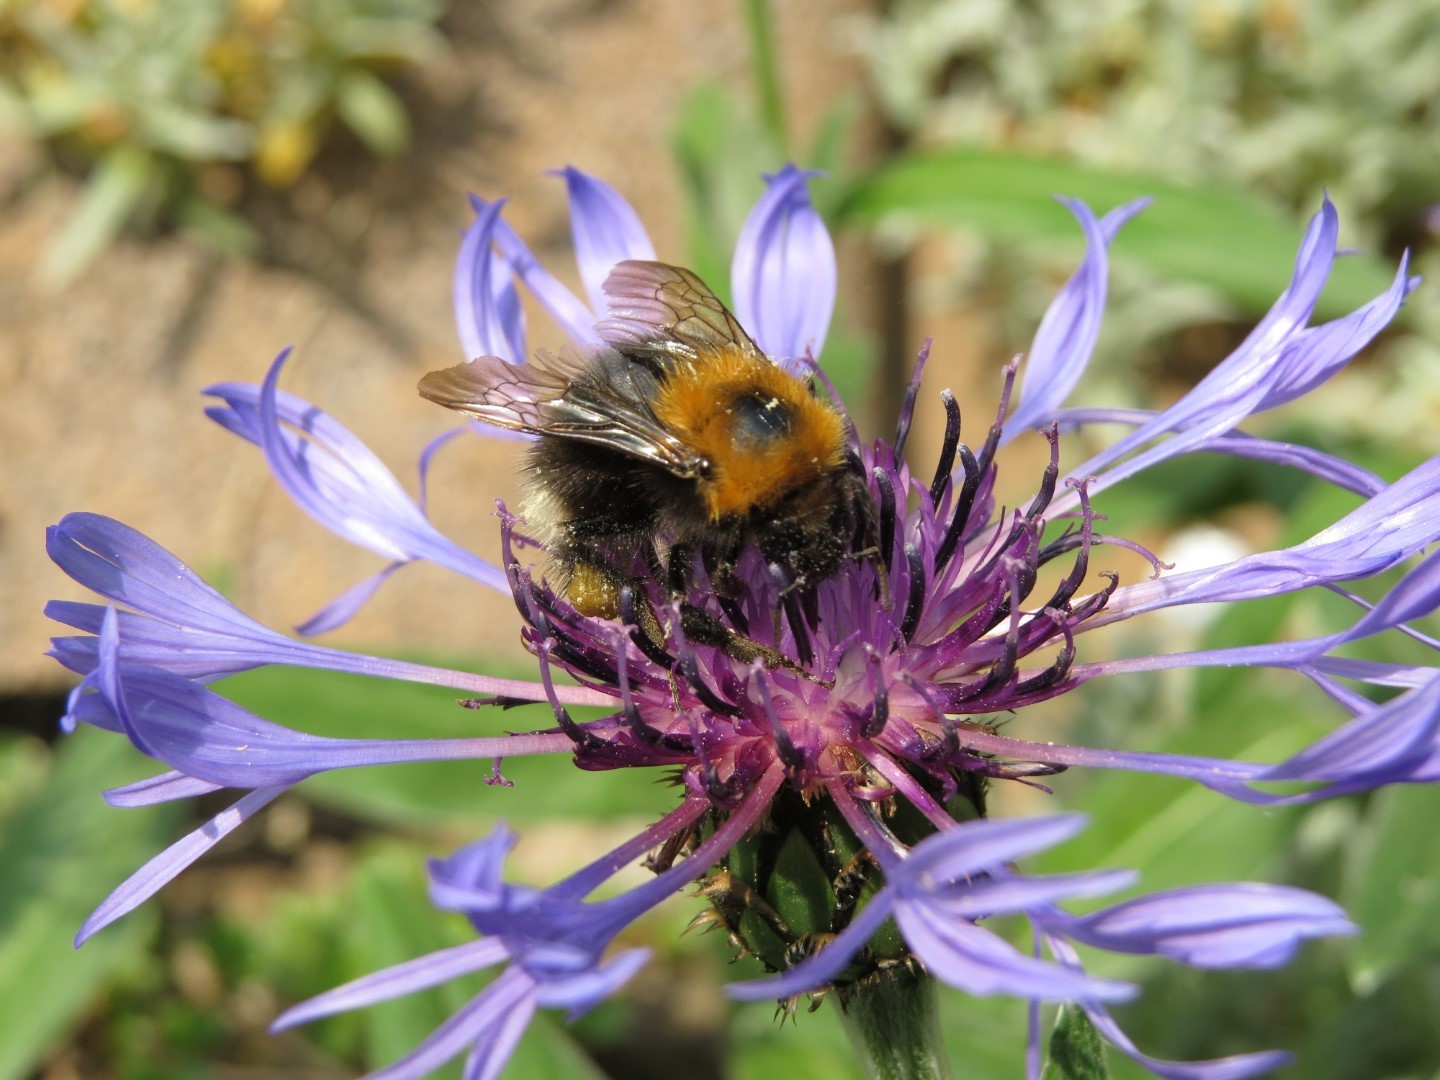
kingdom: Animalia
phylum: Arthropoda
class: Insecta
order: Hymenoptera
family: Apidae
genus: Bombus
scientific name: Bombus hypnorum
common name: New garden bumblebee
